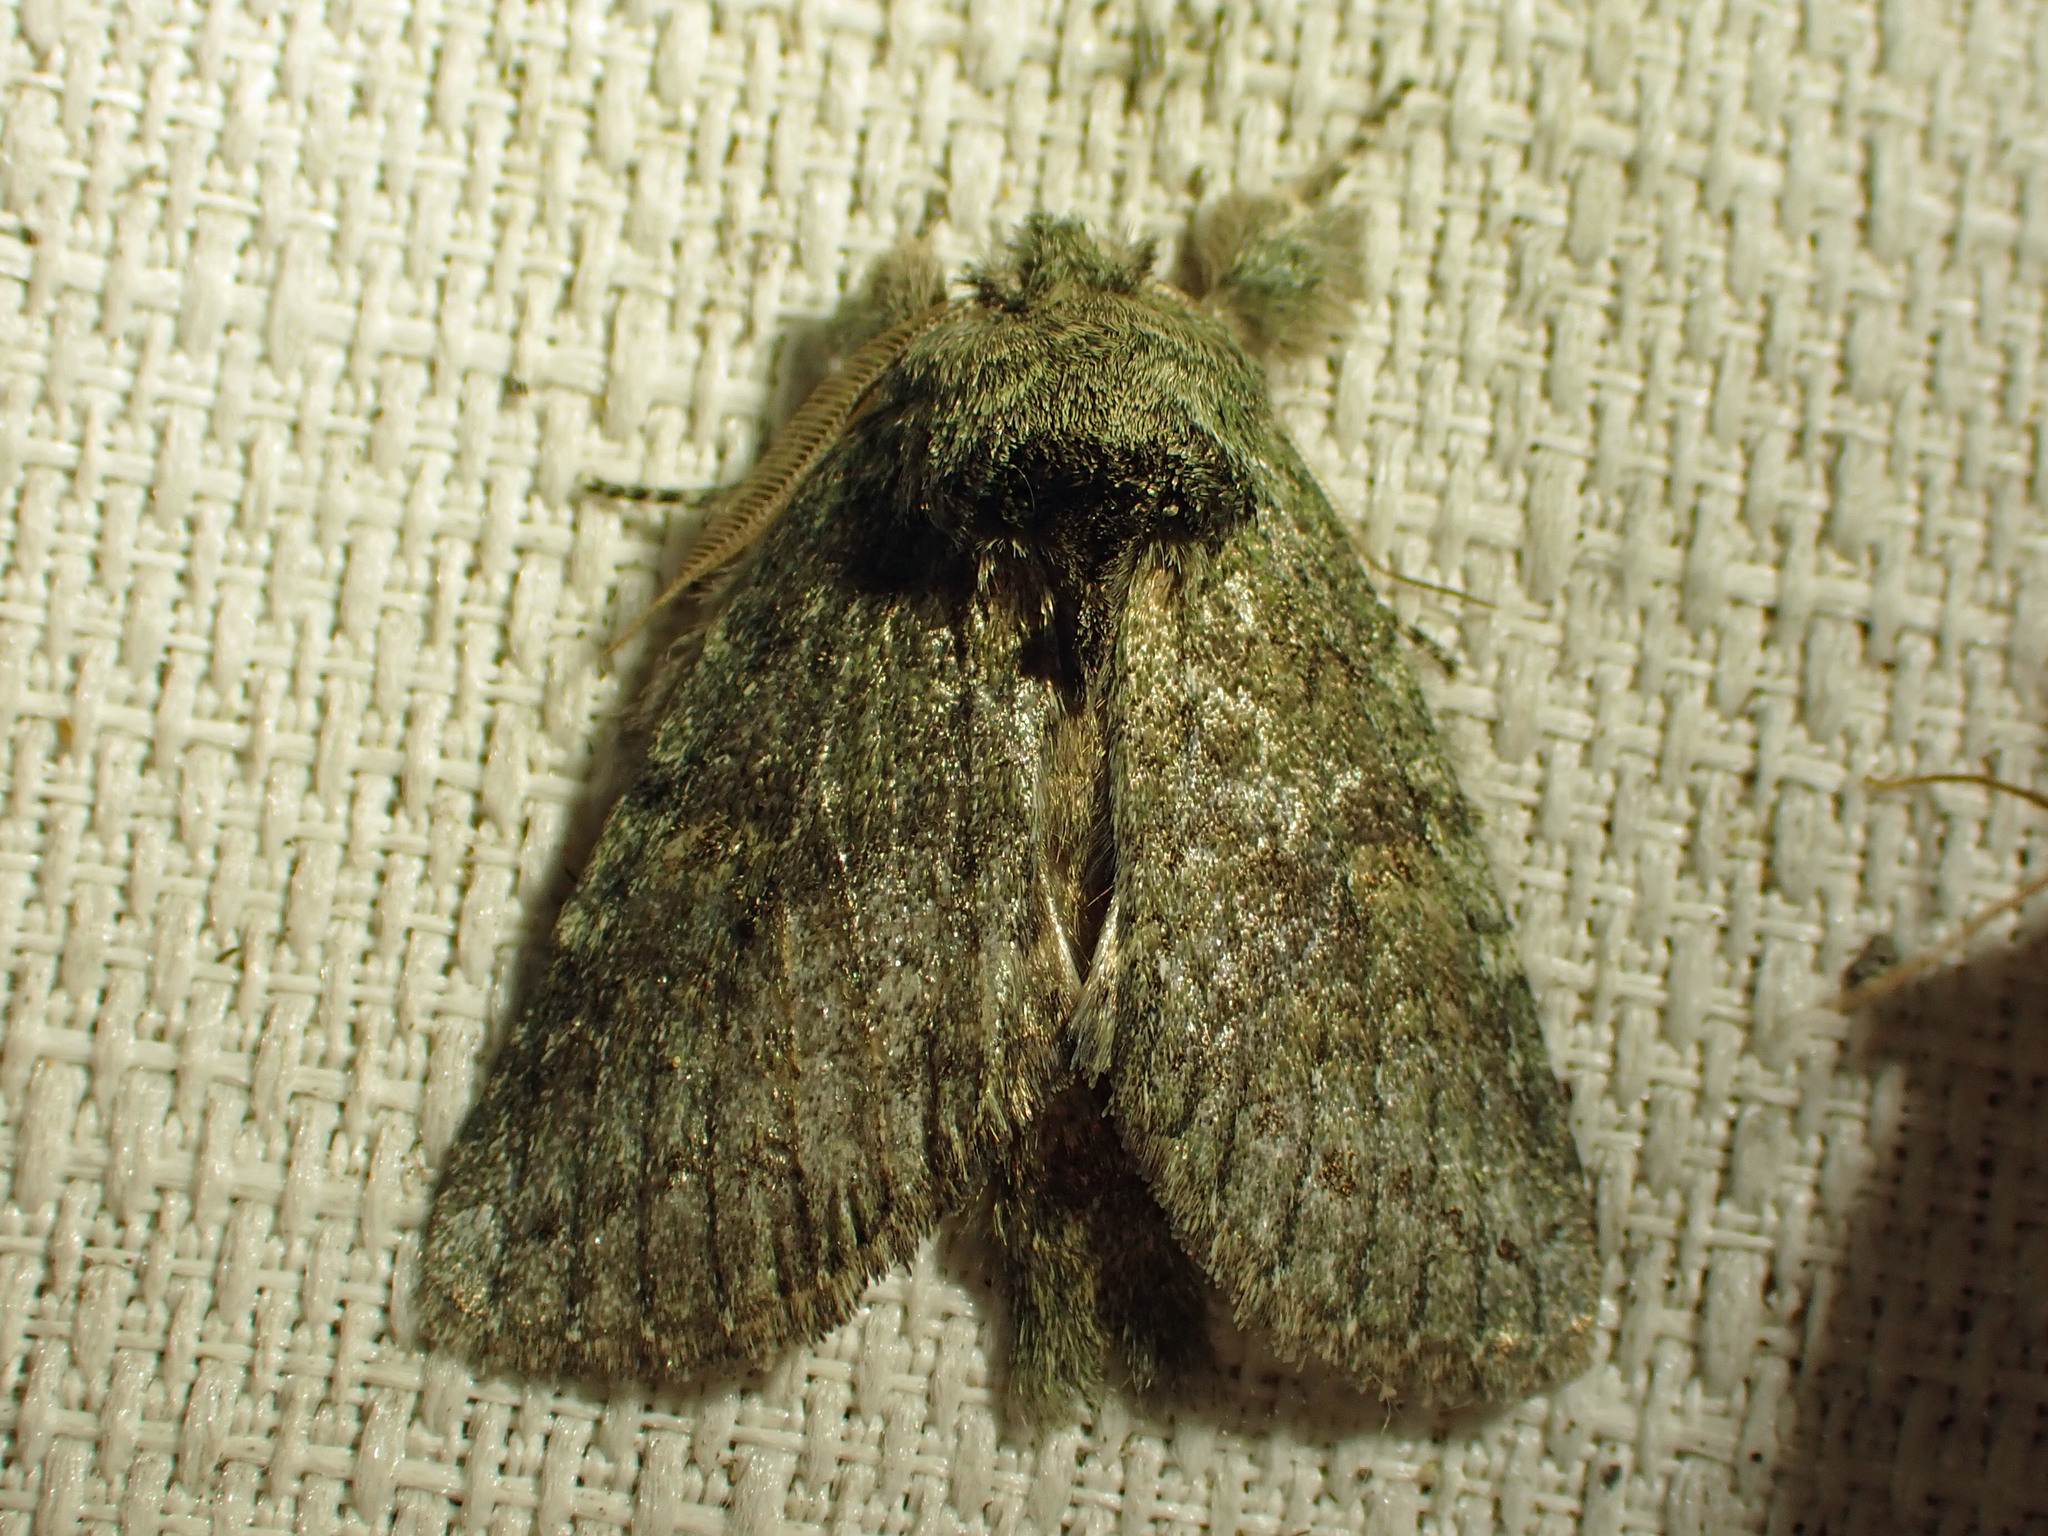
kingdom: Animalia
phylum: Arthropoda
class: Insecta
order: Lepidoptera
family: Notodontidae
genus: Disphragis
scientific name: Disphragis Cecrita guttivitta
